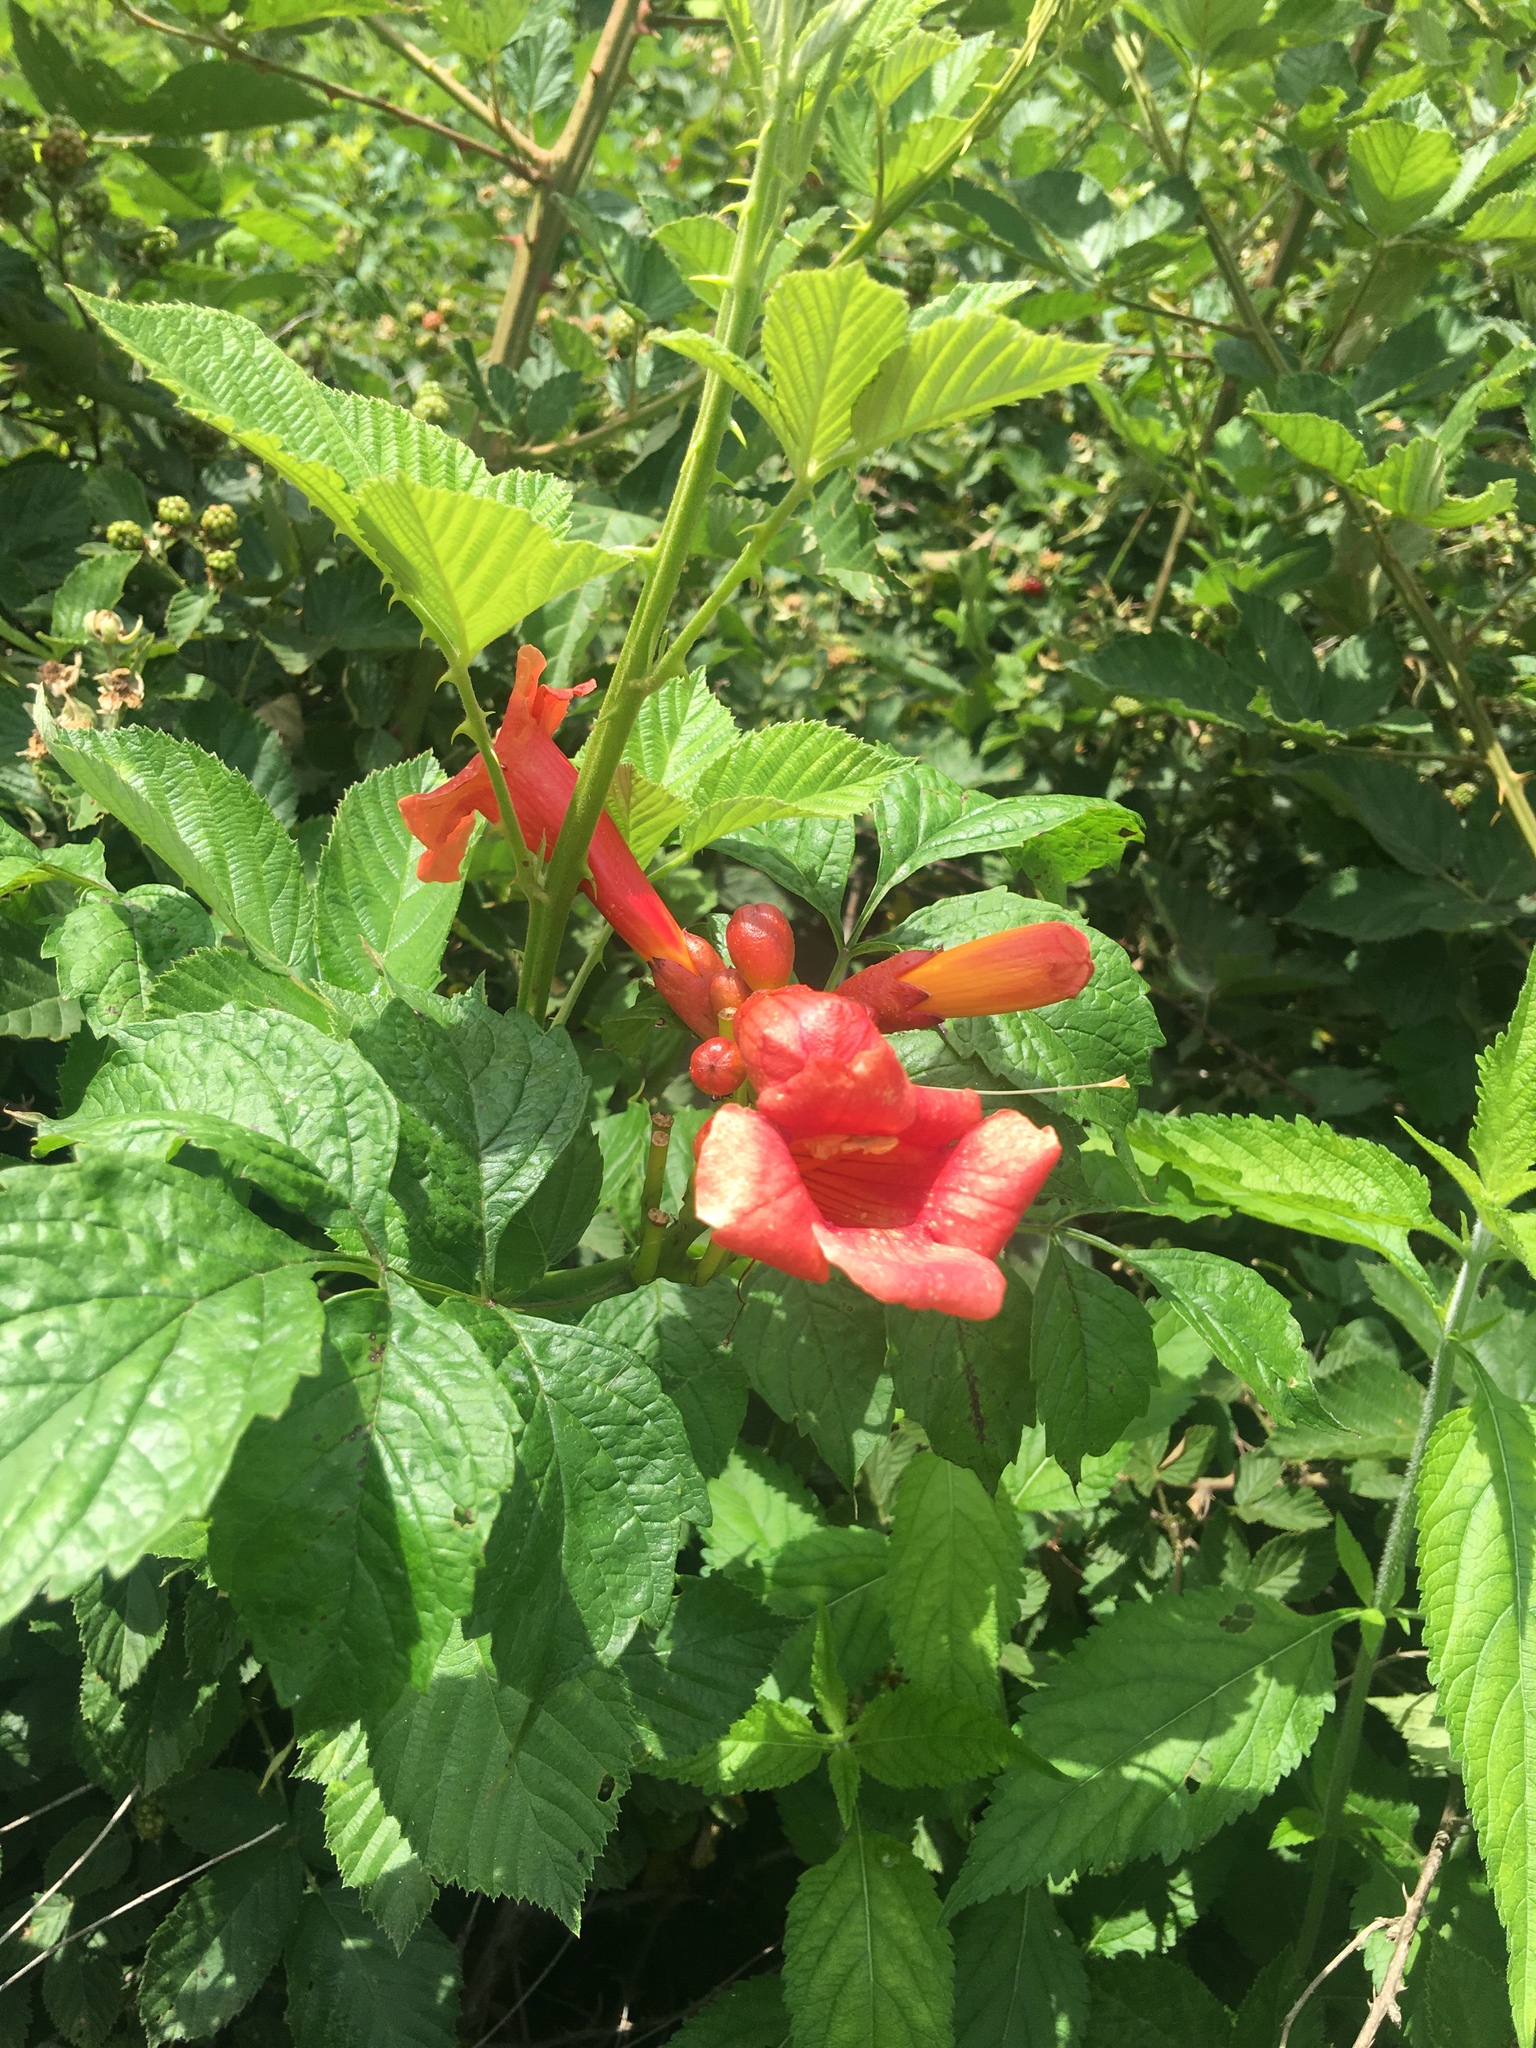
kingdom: Plantae
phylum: Tracheophyta
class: Magnoliopsida
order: Lamiales
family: Bignoniaceae
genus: Campsis
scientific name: Campsis radicans
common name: Trumpet-creeper
